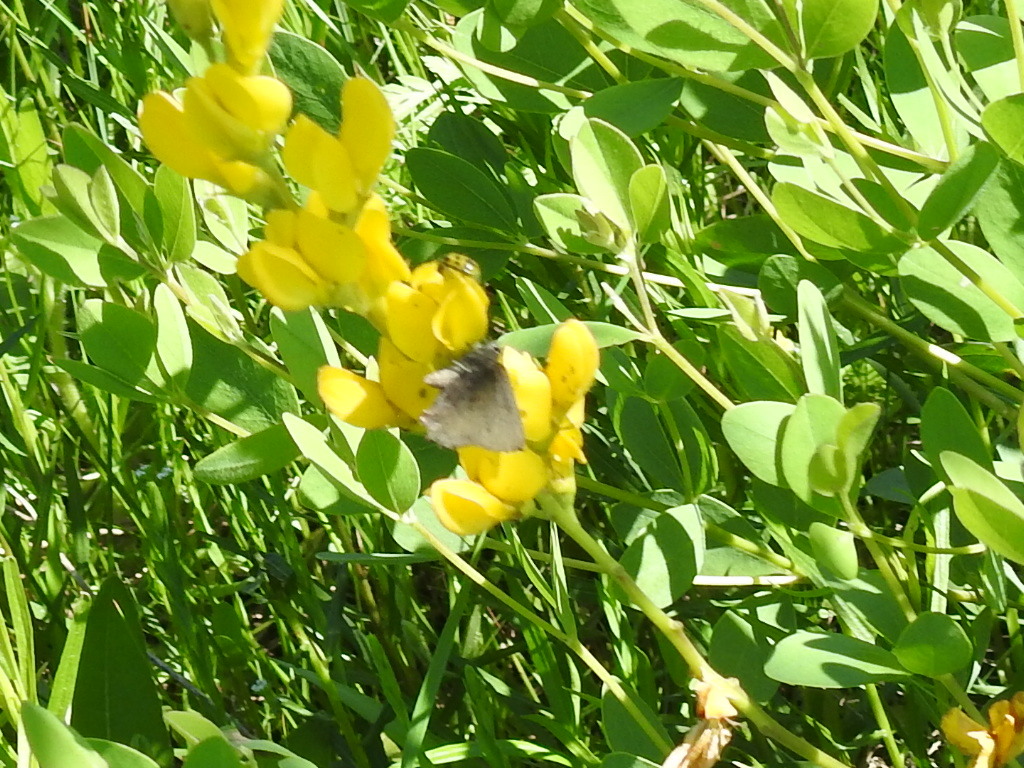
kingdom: Animalia
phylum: Arthropoda
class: Insecta
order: Lepidoptera
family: Lycaenidae
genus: Incisalia
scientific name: Incisalia hadros
